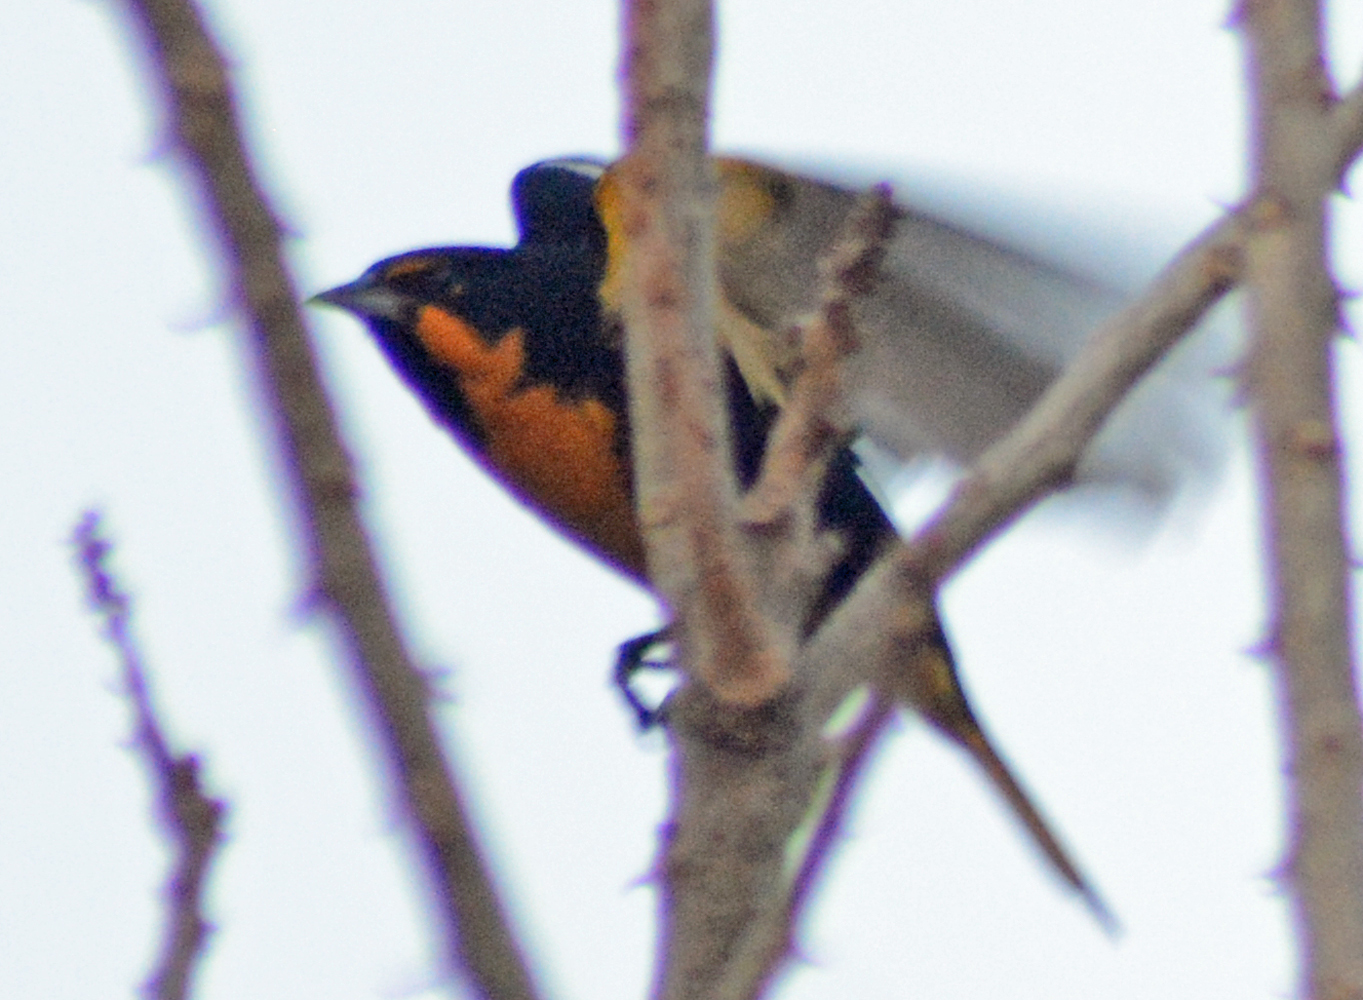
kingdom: Animalia
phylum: Chordata
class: Aves
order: Passeriformes
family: Icteridae
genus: Icterus
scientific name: Icterus abeillei
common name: Black-backed oriole
